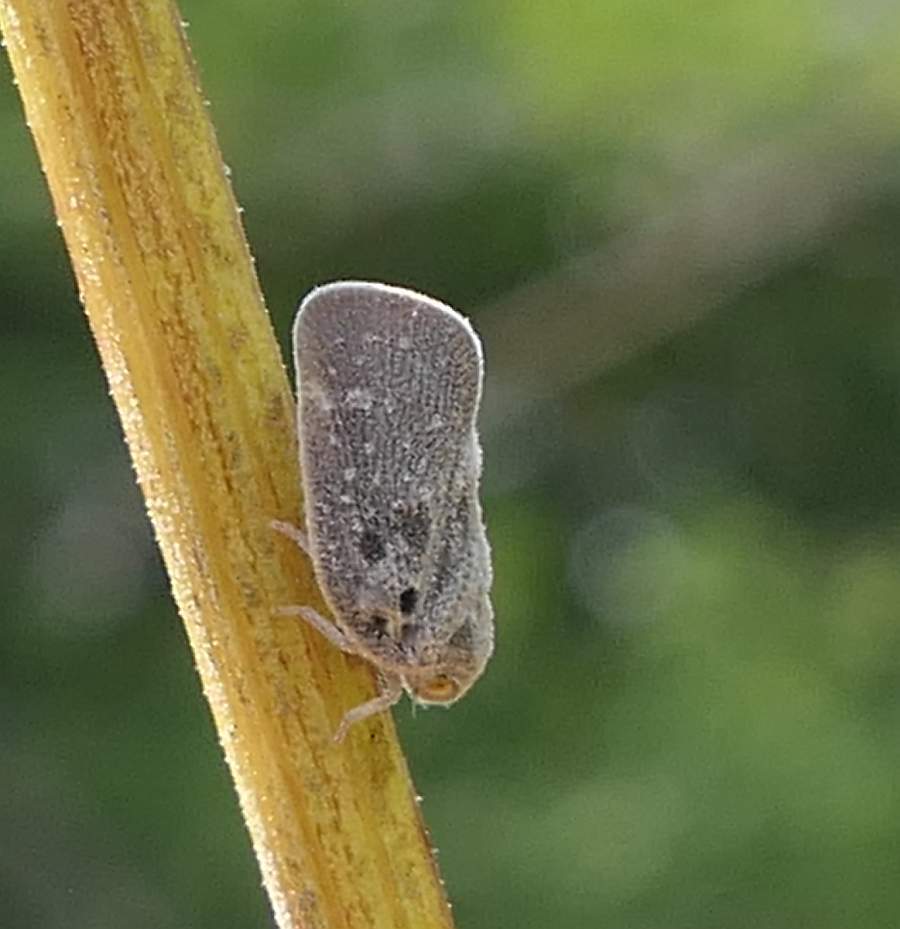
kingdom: Animalia
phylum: Arthropoda
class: Insecta
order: Hemiptera
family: Flatidae
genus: Metcalfa
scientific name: Metcalfa pruinosa
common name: Citrus flatid planthopper
